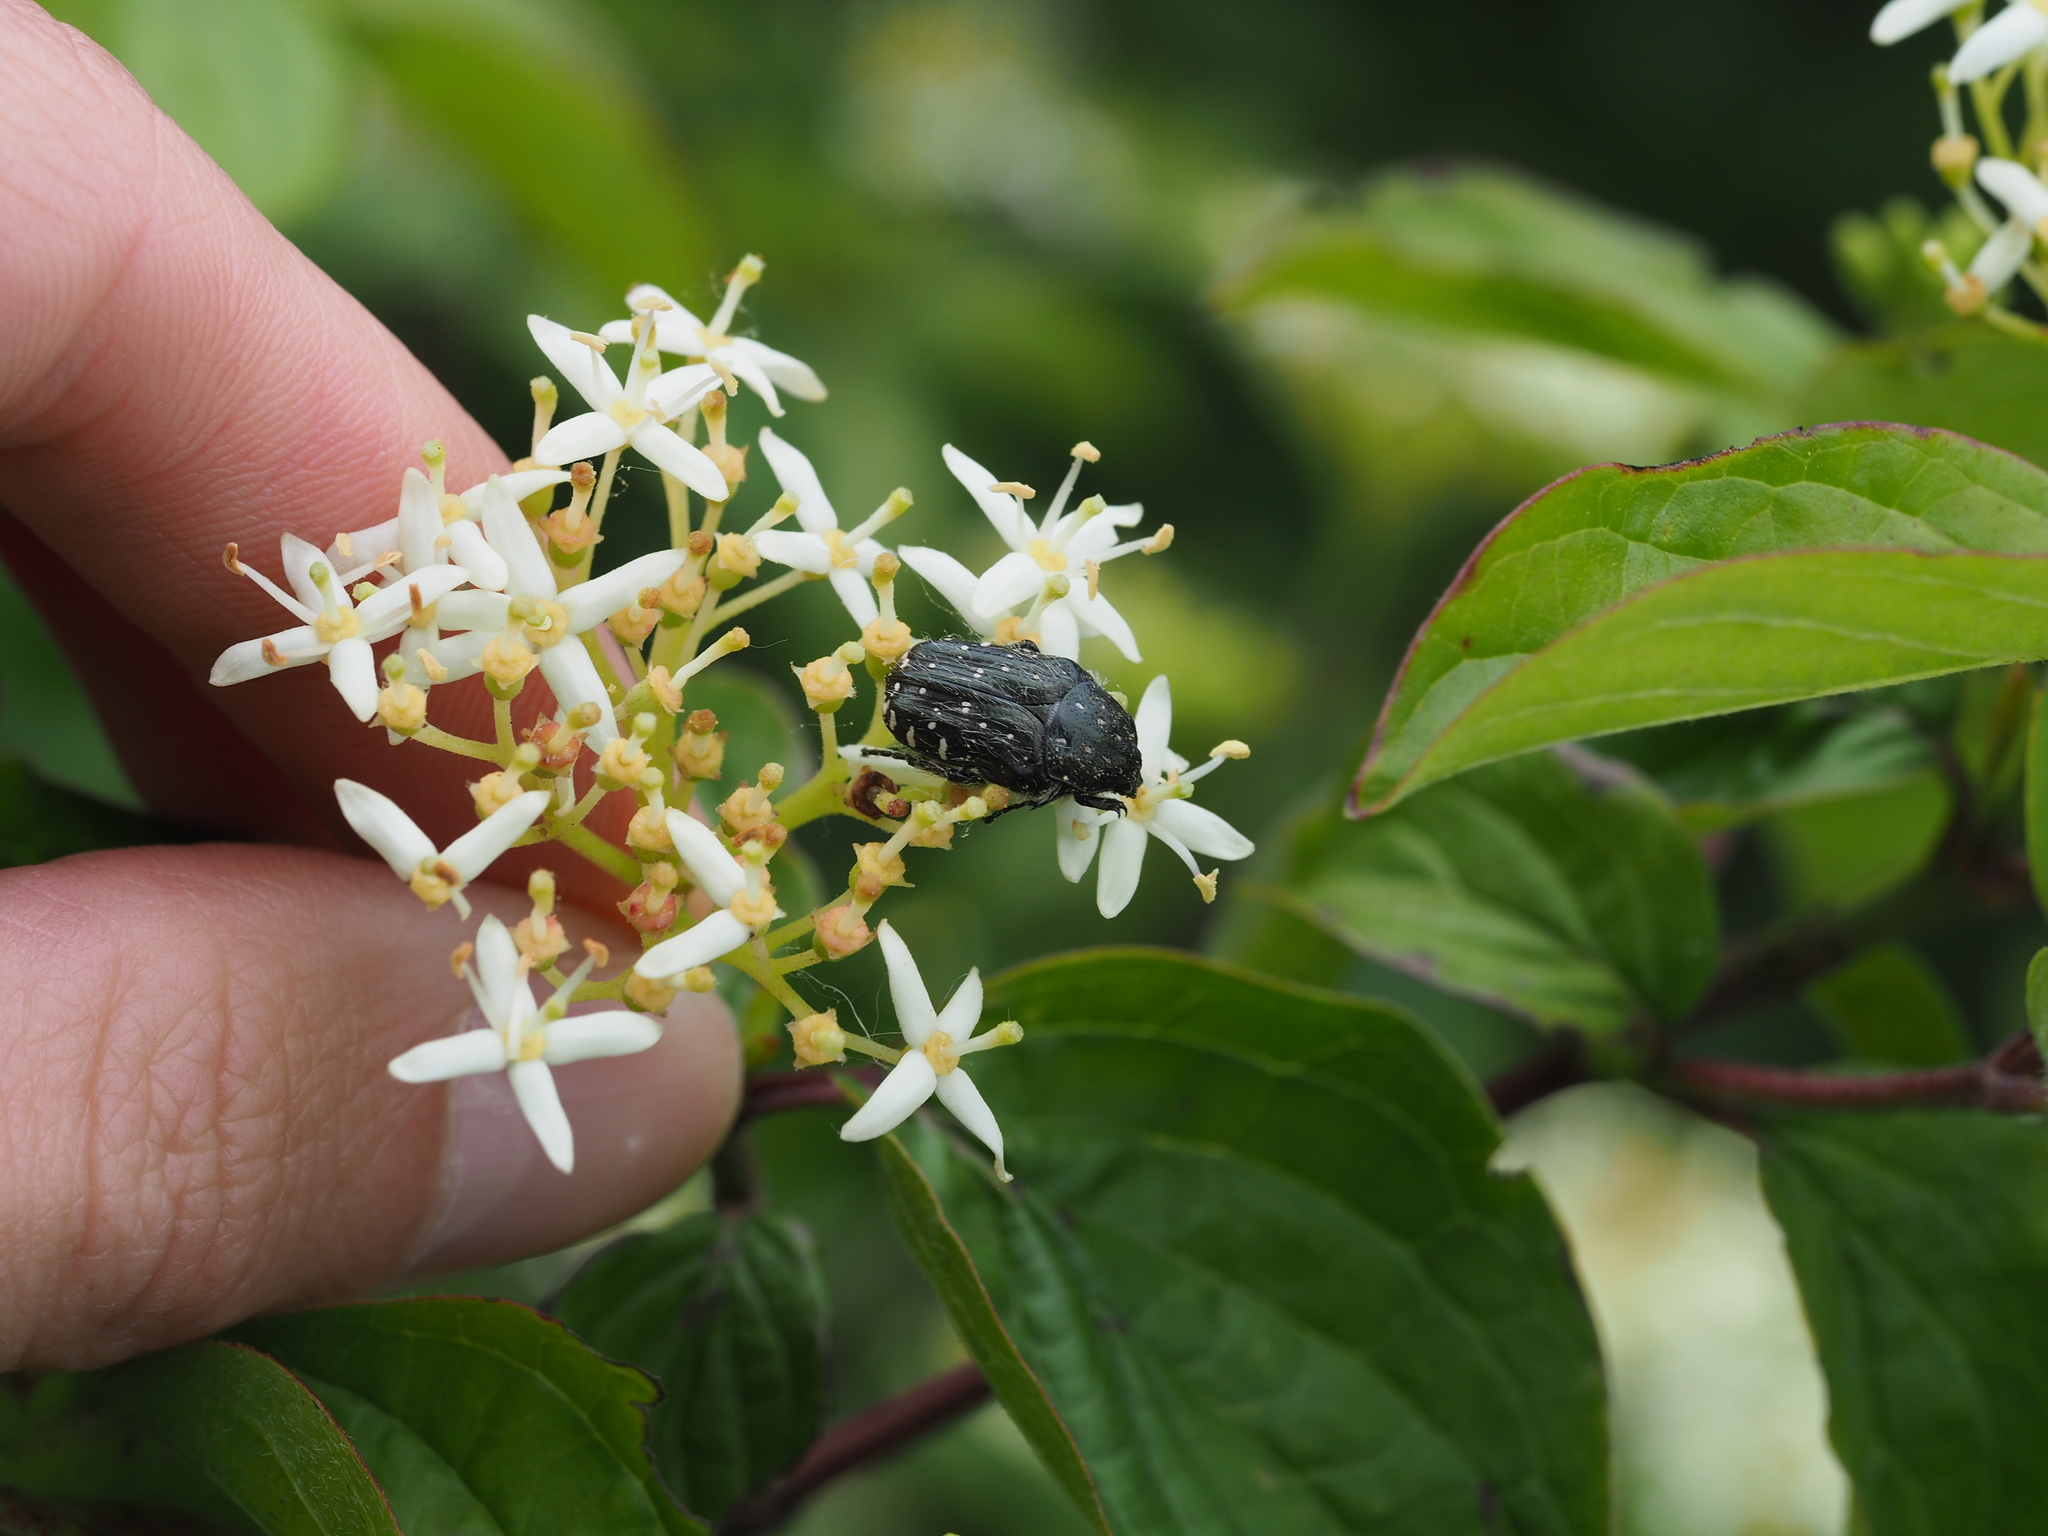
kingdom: Animalia
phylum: Arthropoda
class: Insecta
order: Coleoptera
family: Scarabaeidae
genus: Oxythyrea
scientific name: Oxythyrea funesta
